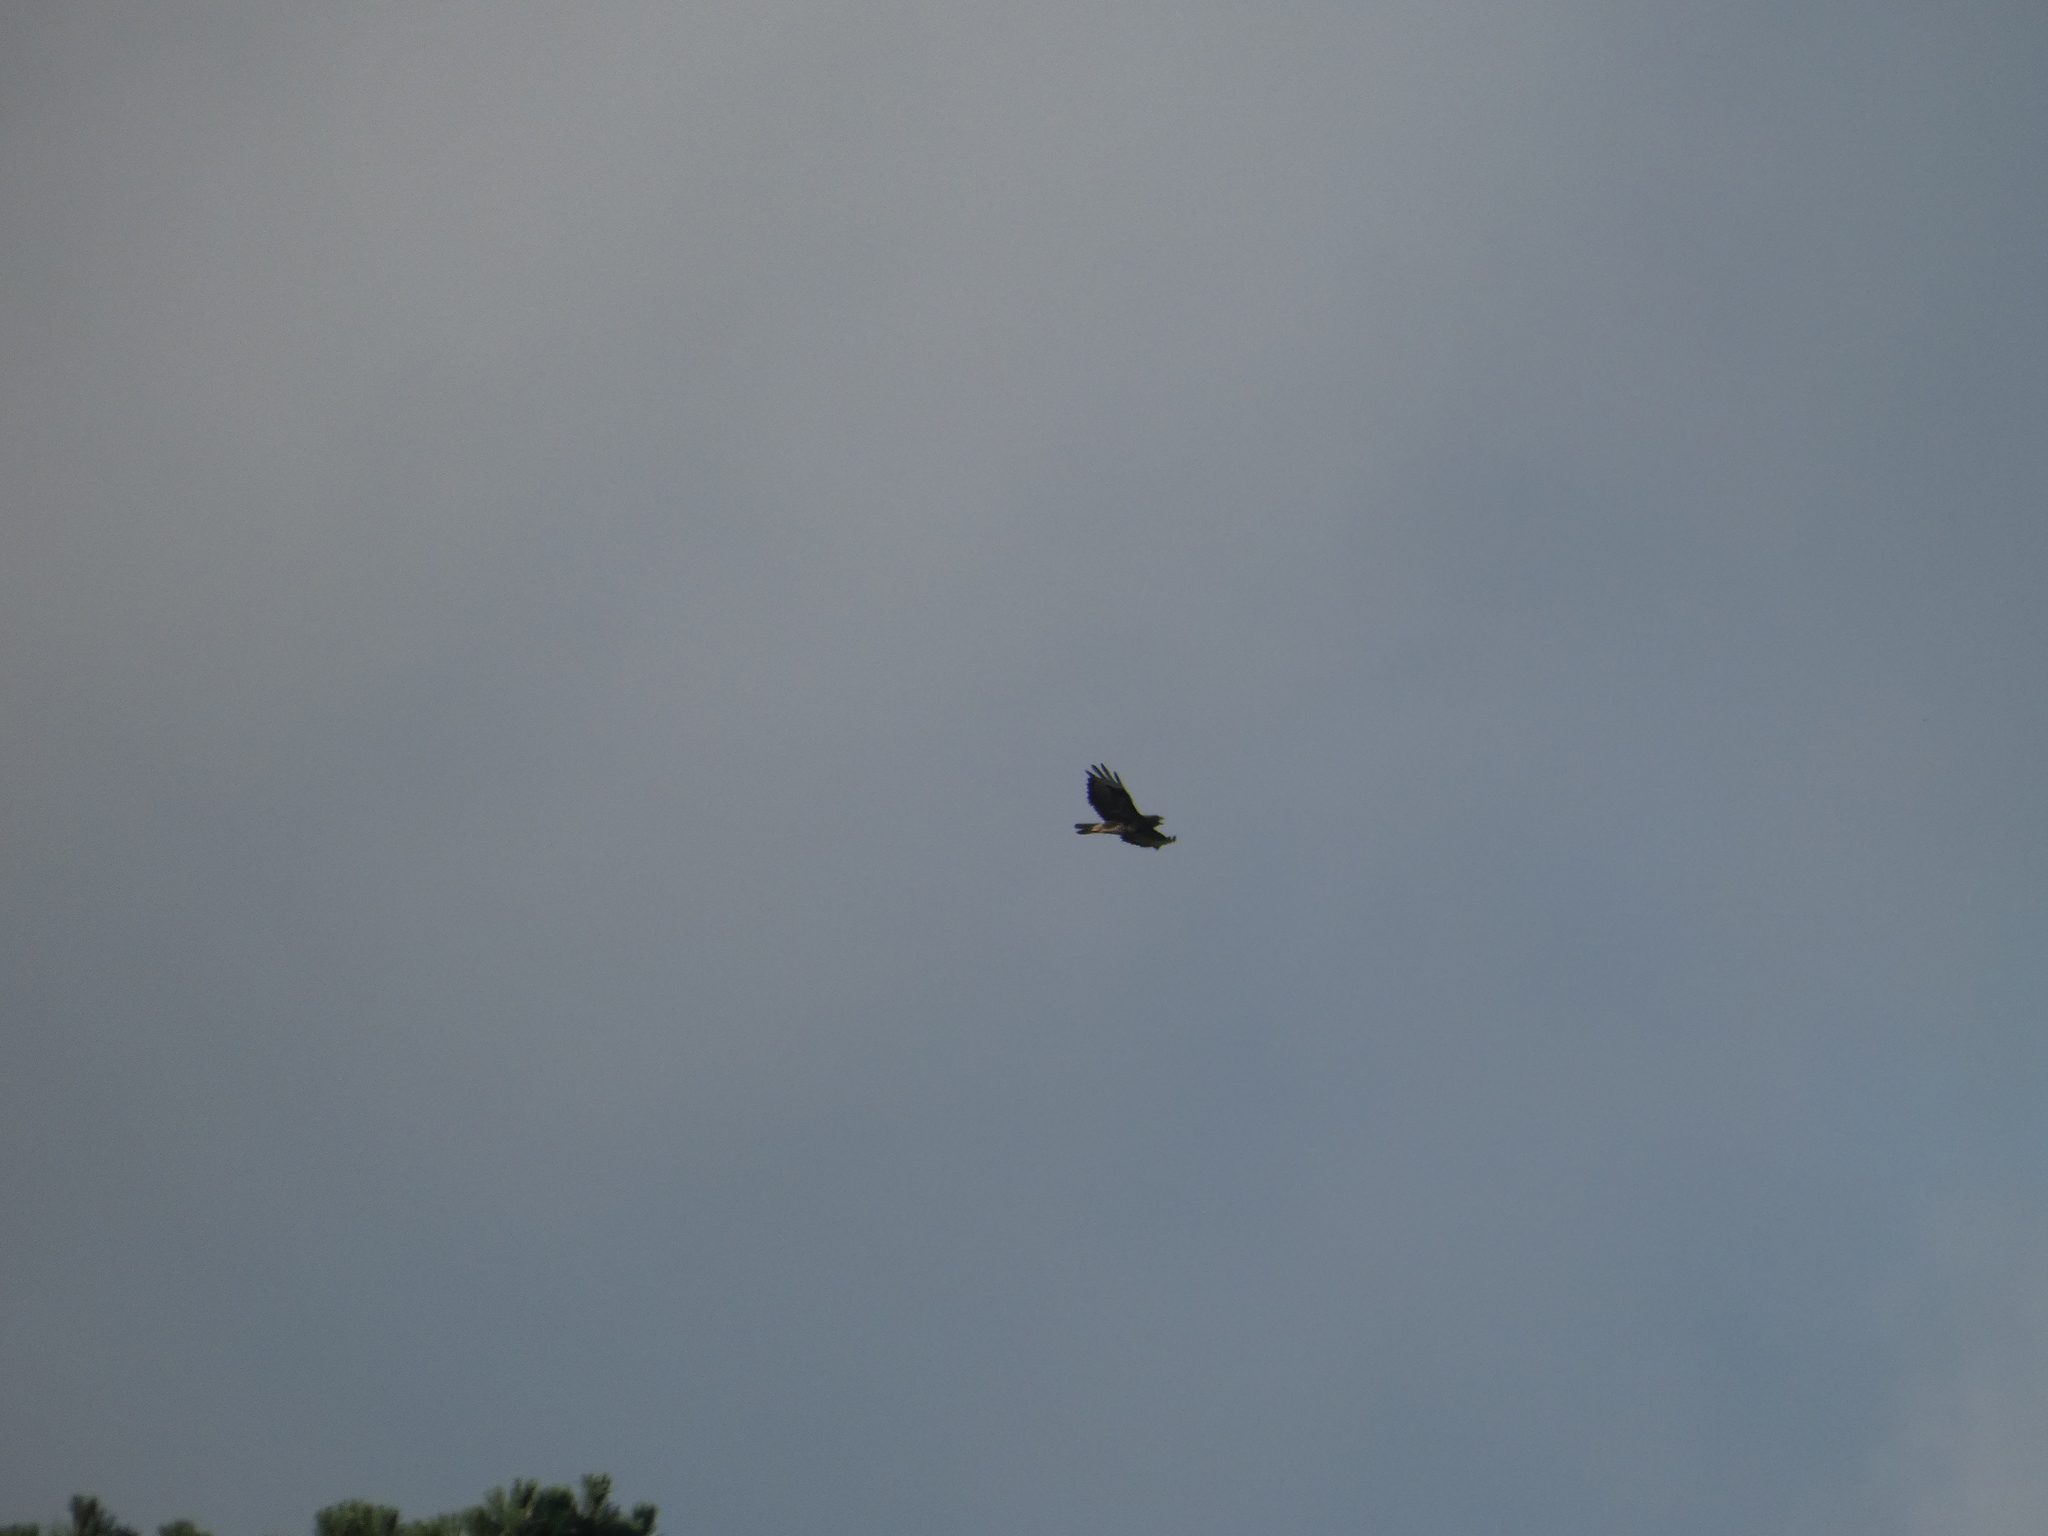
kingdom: Animalia
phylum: Chordata
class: Aves
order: Accipitriformes
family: Accipitridae
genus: Buteo
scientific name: Buteo buteo
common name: Common buzzard
